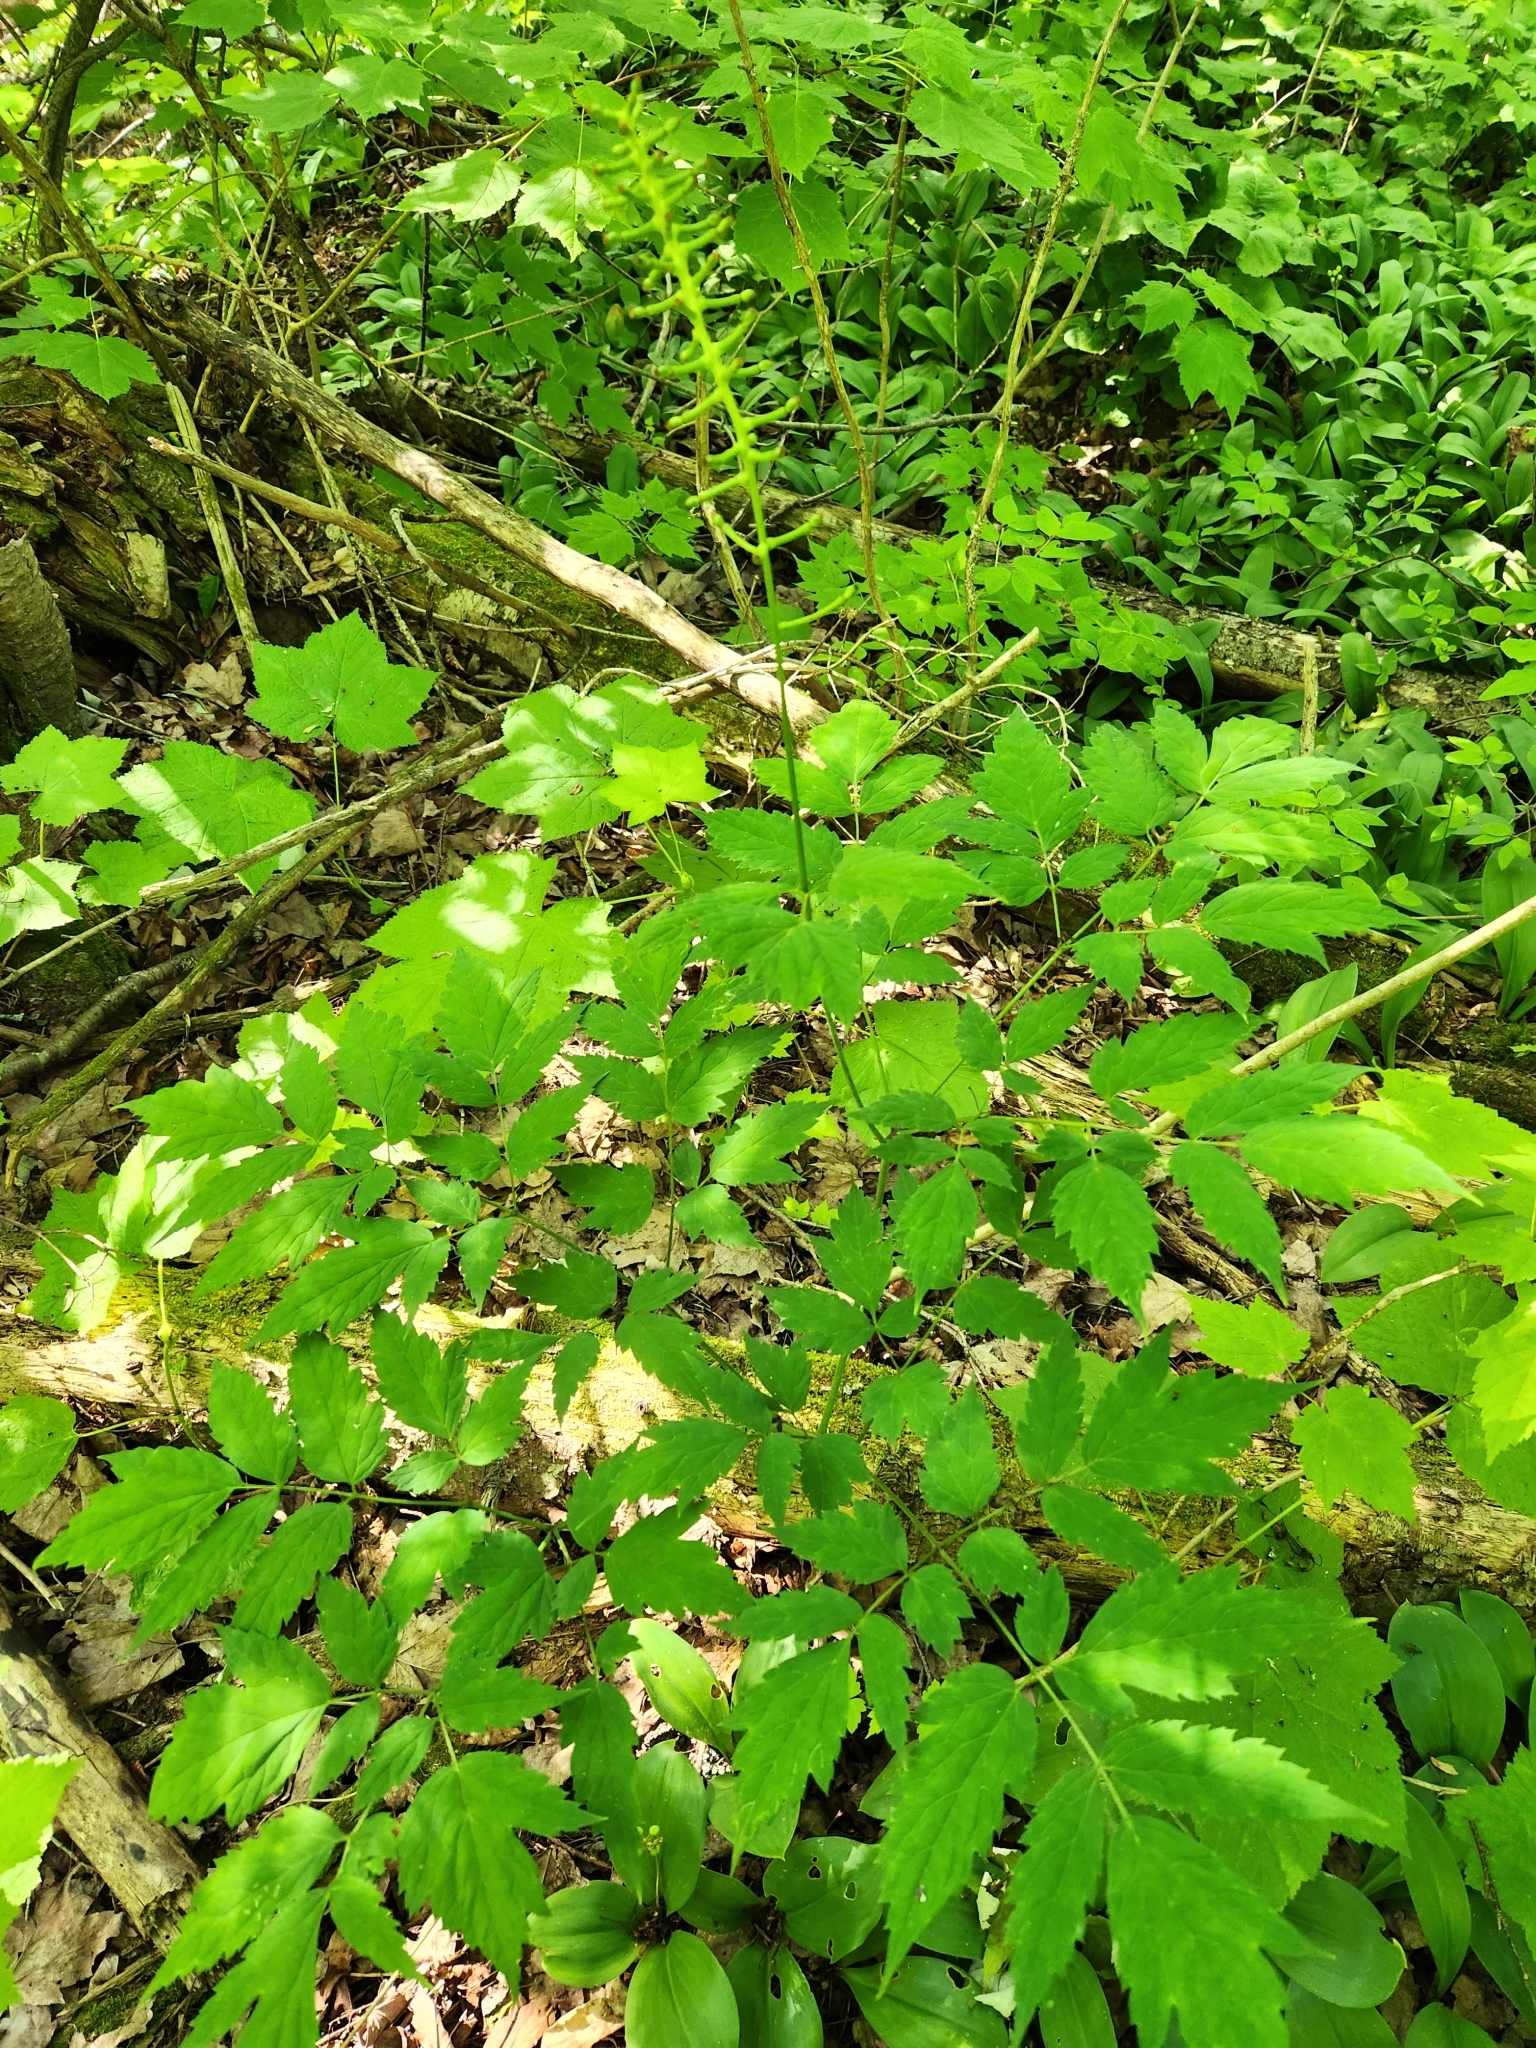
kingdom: Plantae
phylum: Tracheophyta
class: Magnoliopsida
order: Ranunculales
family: Ranunculaceae
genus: Actaea
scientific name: Actaea pachypoda
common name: Doll's-eyes
